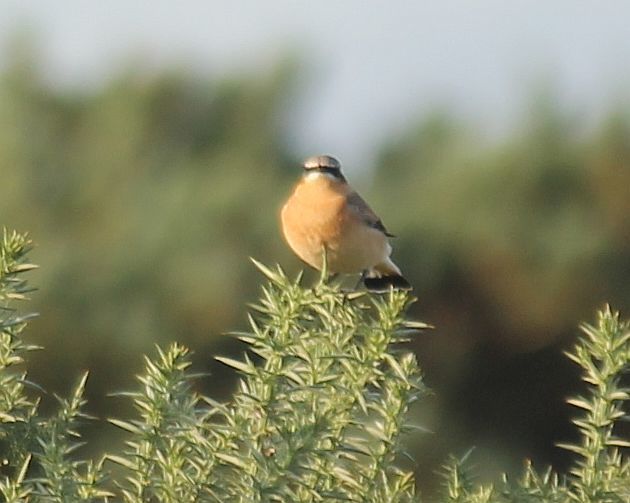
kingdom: Animalia
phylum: Chordata
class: Aves
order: Passeriformes
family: Muscicapidae
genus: Oenanthe
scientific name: Oenanthe oenanthe
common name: Northern wheatear
